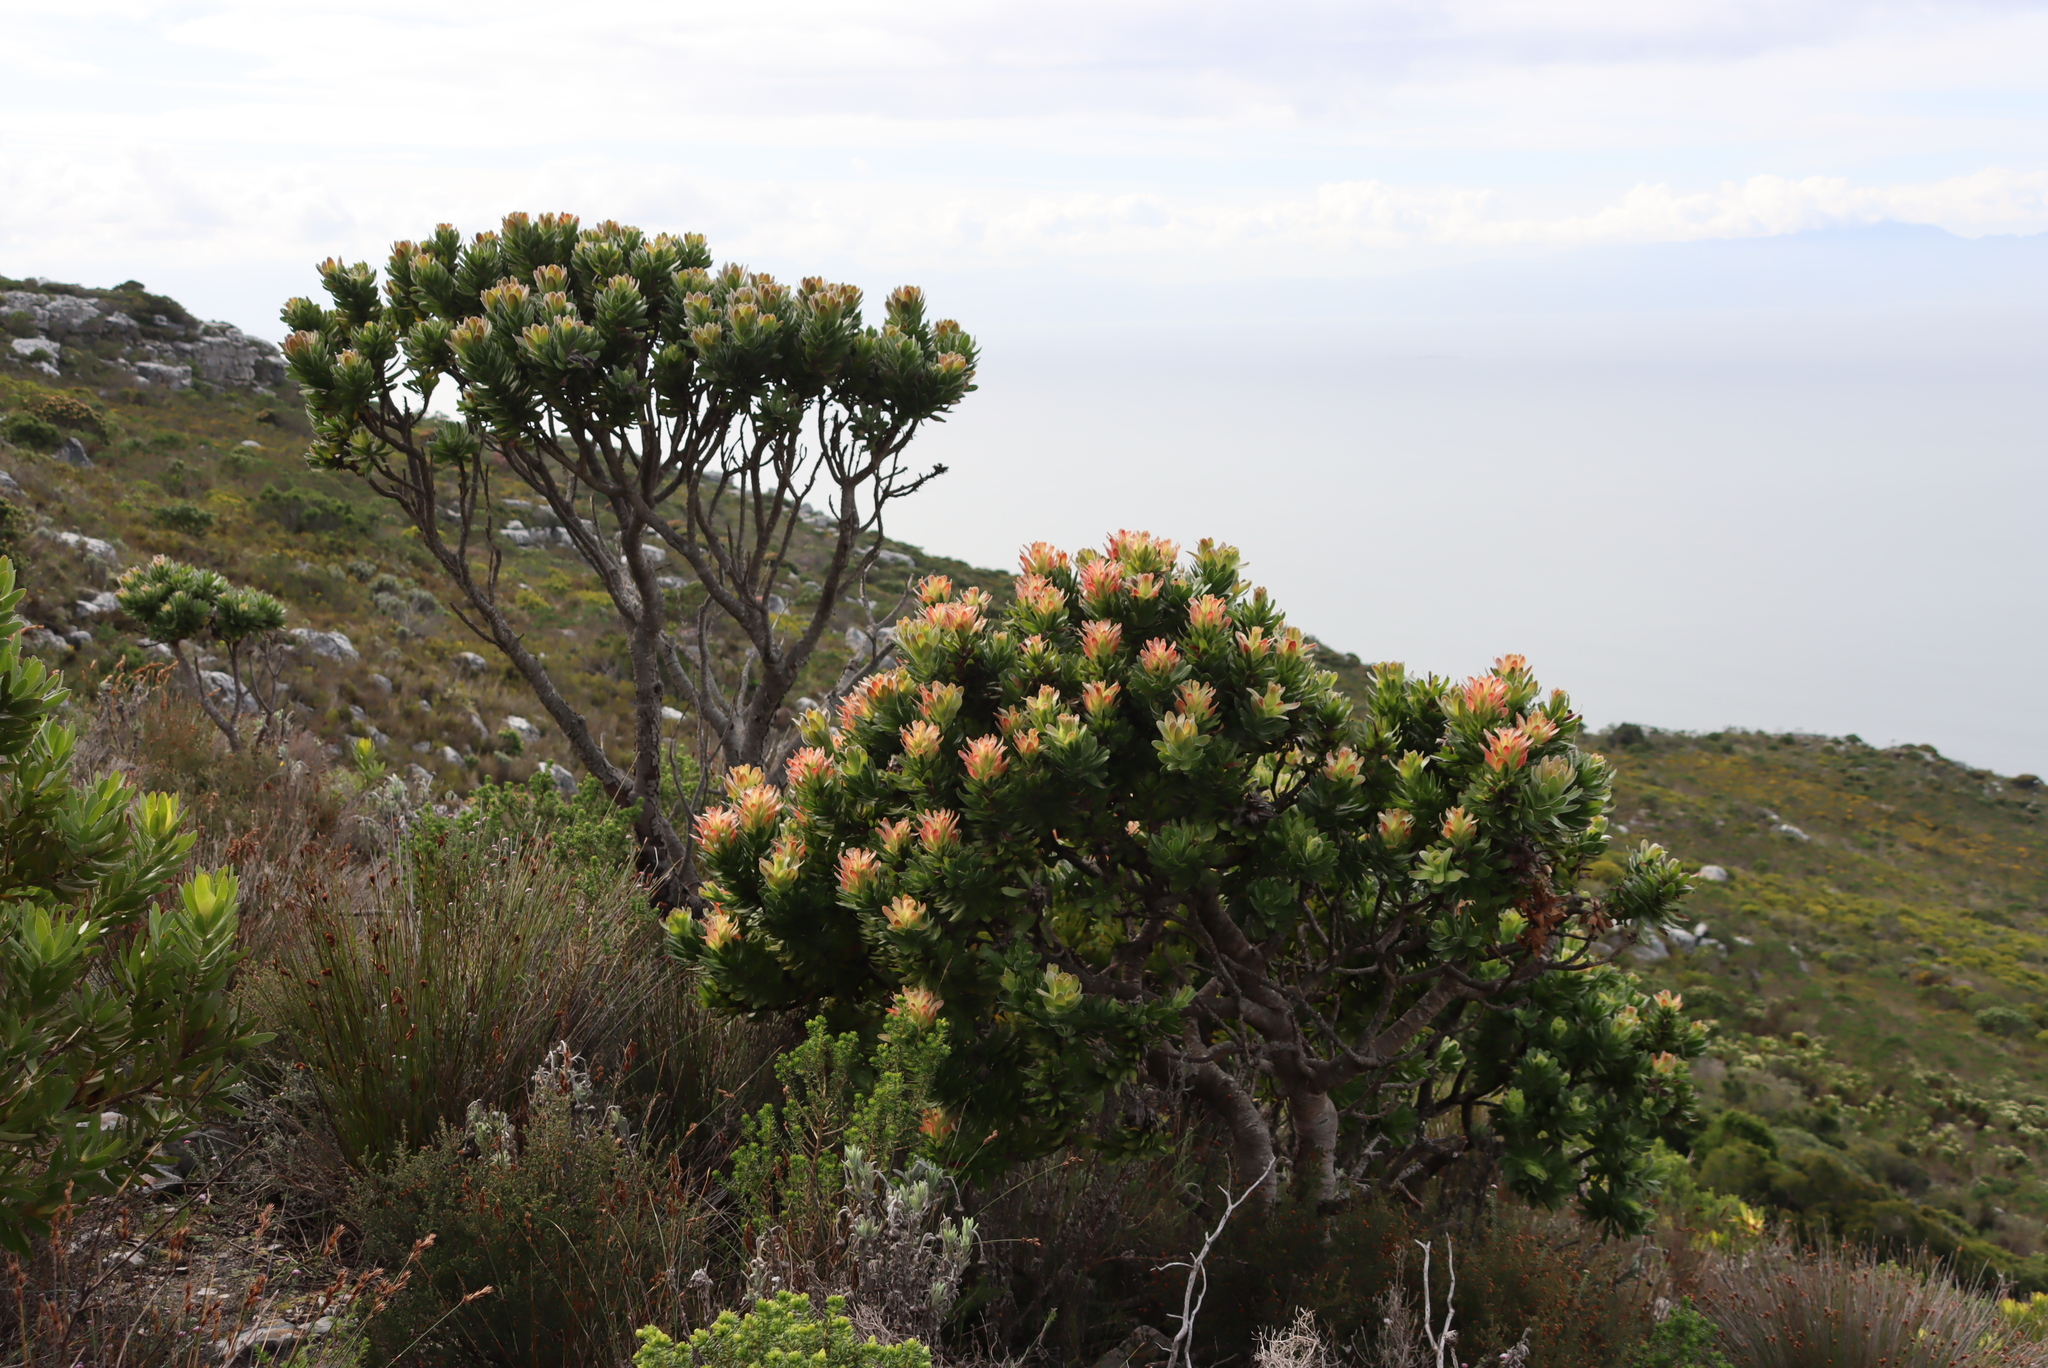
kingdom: Plantae
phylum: Tracheophyta
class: Magnoliopsida
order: Proteales
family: Proteaceae
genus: Mimetes
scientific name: Mimetes fimbriifolius
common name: Fringed bottlebrush
